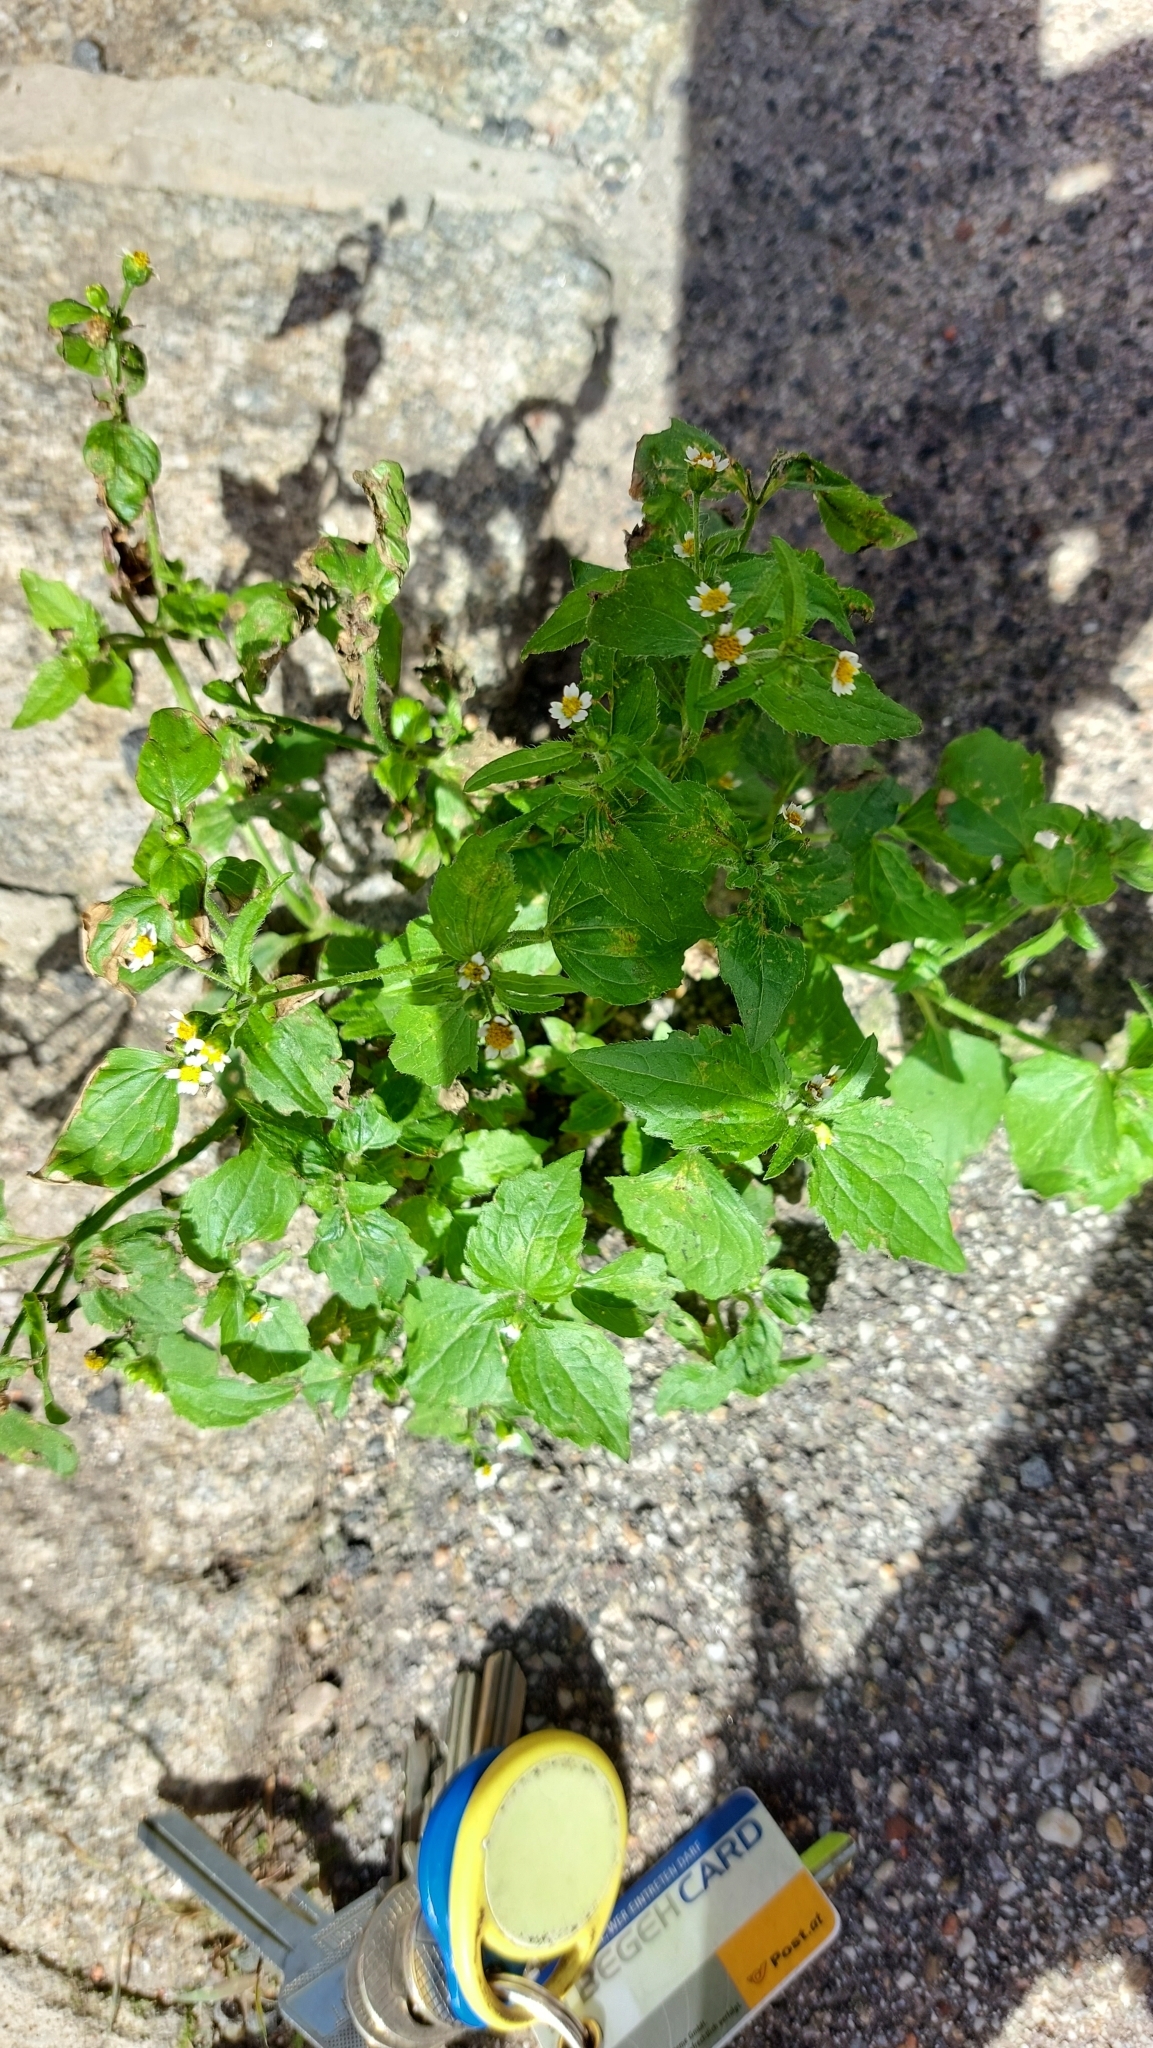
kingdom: Plantae
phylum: Tracheophyta
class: Magnoliopsida
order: Asterales
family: Asteraceae
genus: Galinsoga
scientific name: Galinsoga quadriradiata
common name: Shaggy soldier
